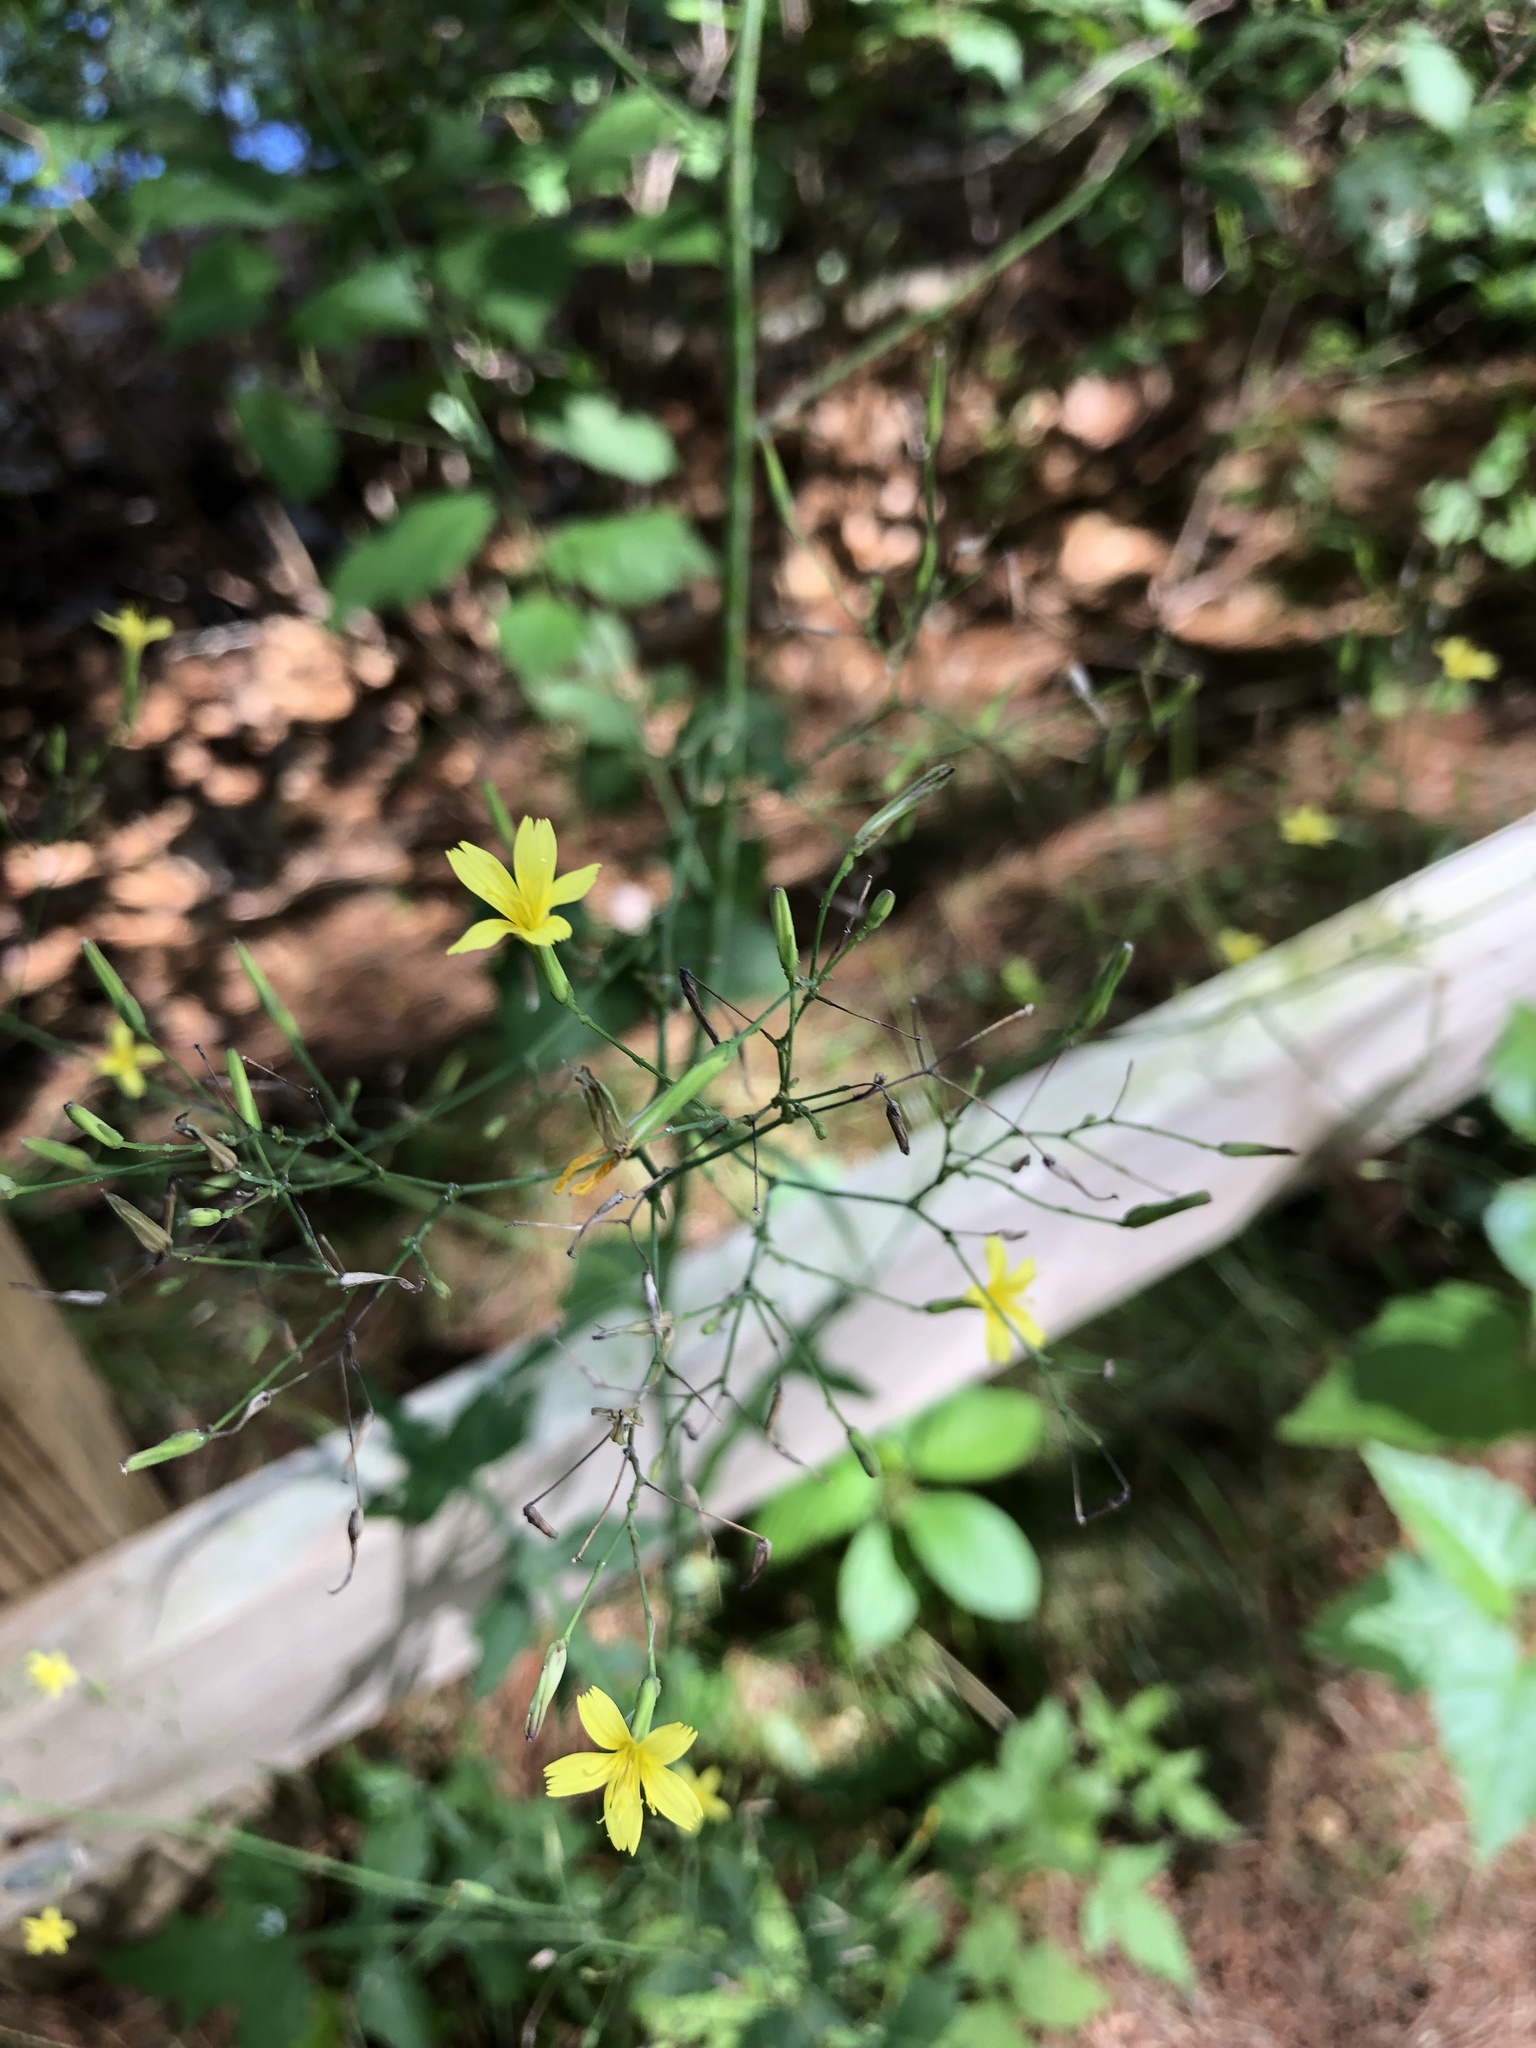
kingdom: Plantae
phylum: Tracheophyta
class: Magnoliopsida
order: Asterales
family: Asteraceae
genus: Mycelis
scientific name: Mycelis muralis
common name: Wall lettuce
